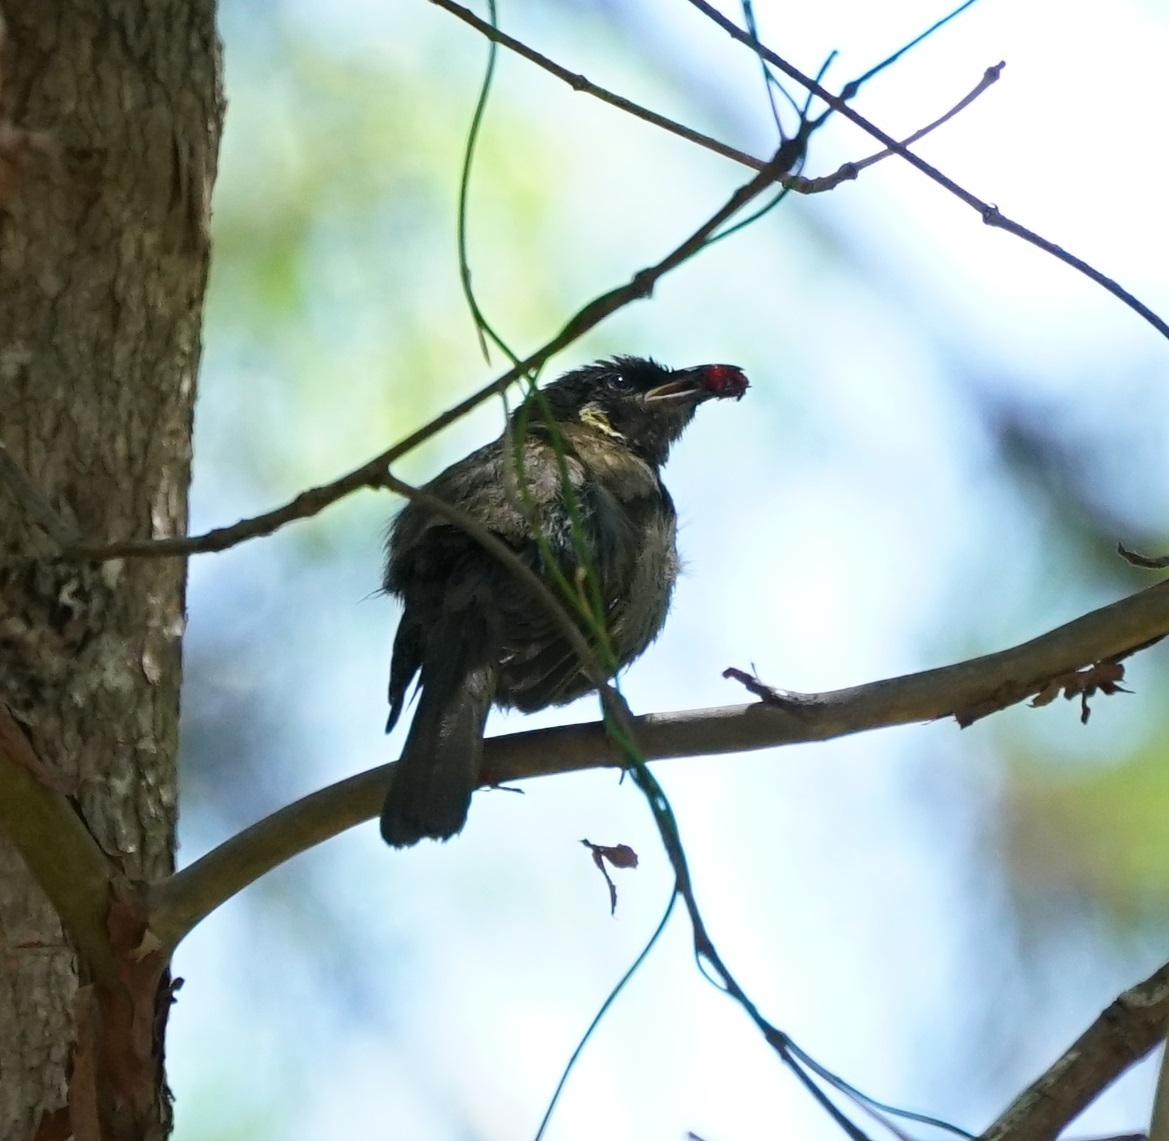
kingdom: Animalia
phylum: Chordata
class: Aves
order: Passeriformes
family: Meliphagidae
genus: Meliphaga
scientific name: Meliphaga lewinii
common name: Lewin's honeyeater
